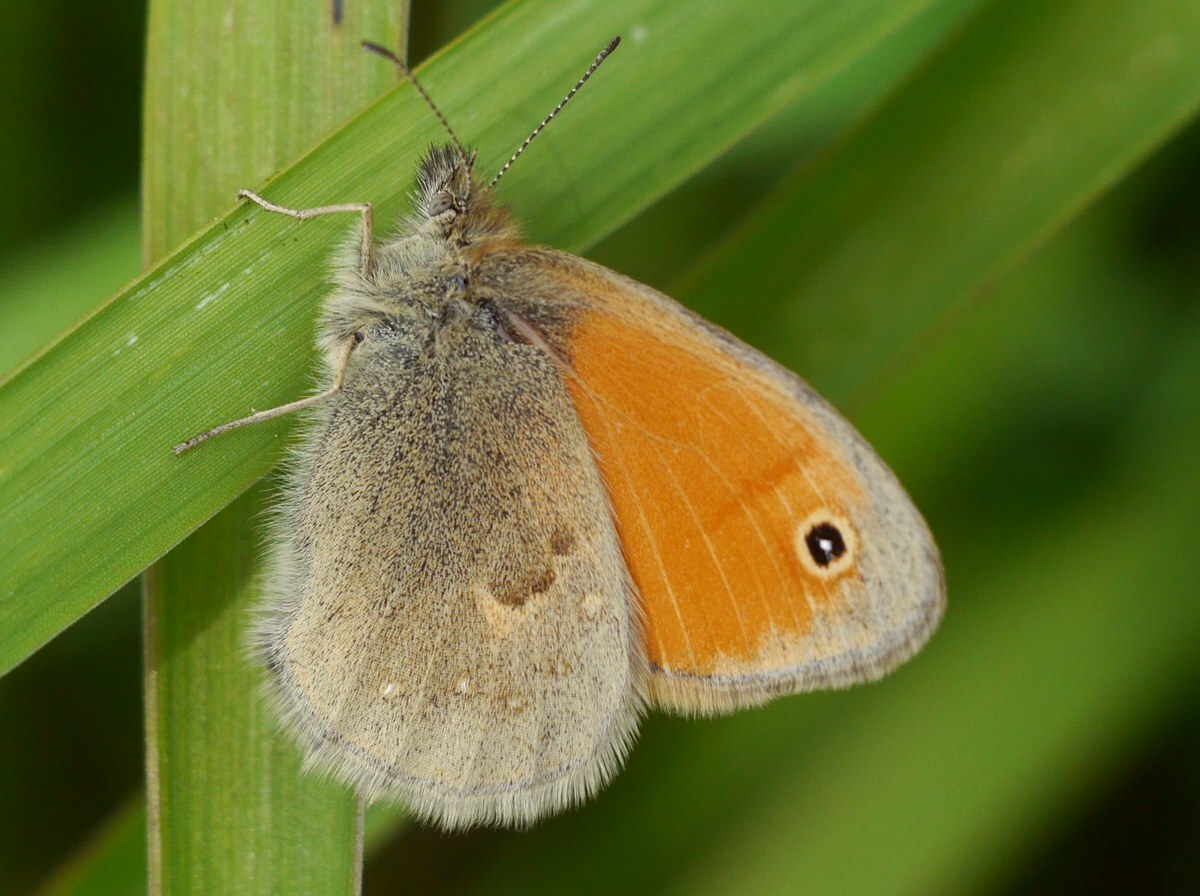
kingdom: Animalia
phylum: Arthropoda
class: Insecta
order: Lepidoptera
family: Nymphalidae
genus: Coenonympha
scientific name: Coenonympha pamphilus
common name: Small heath
